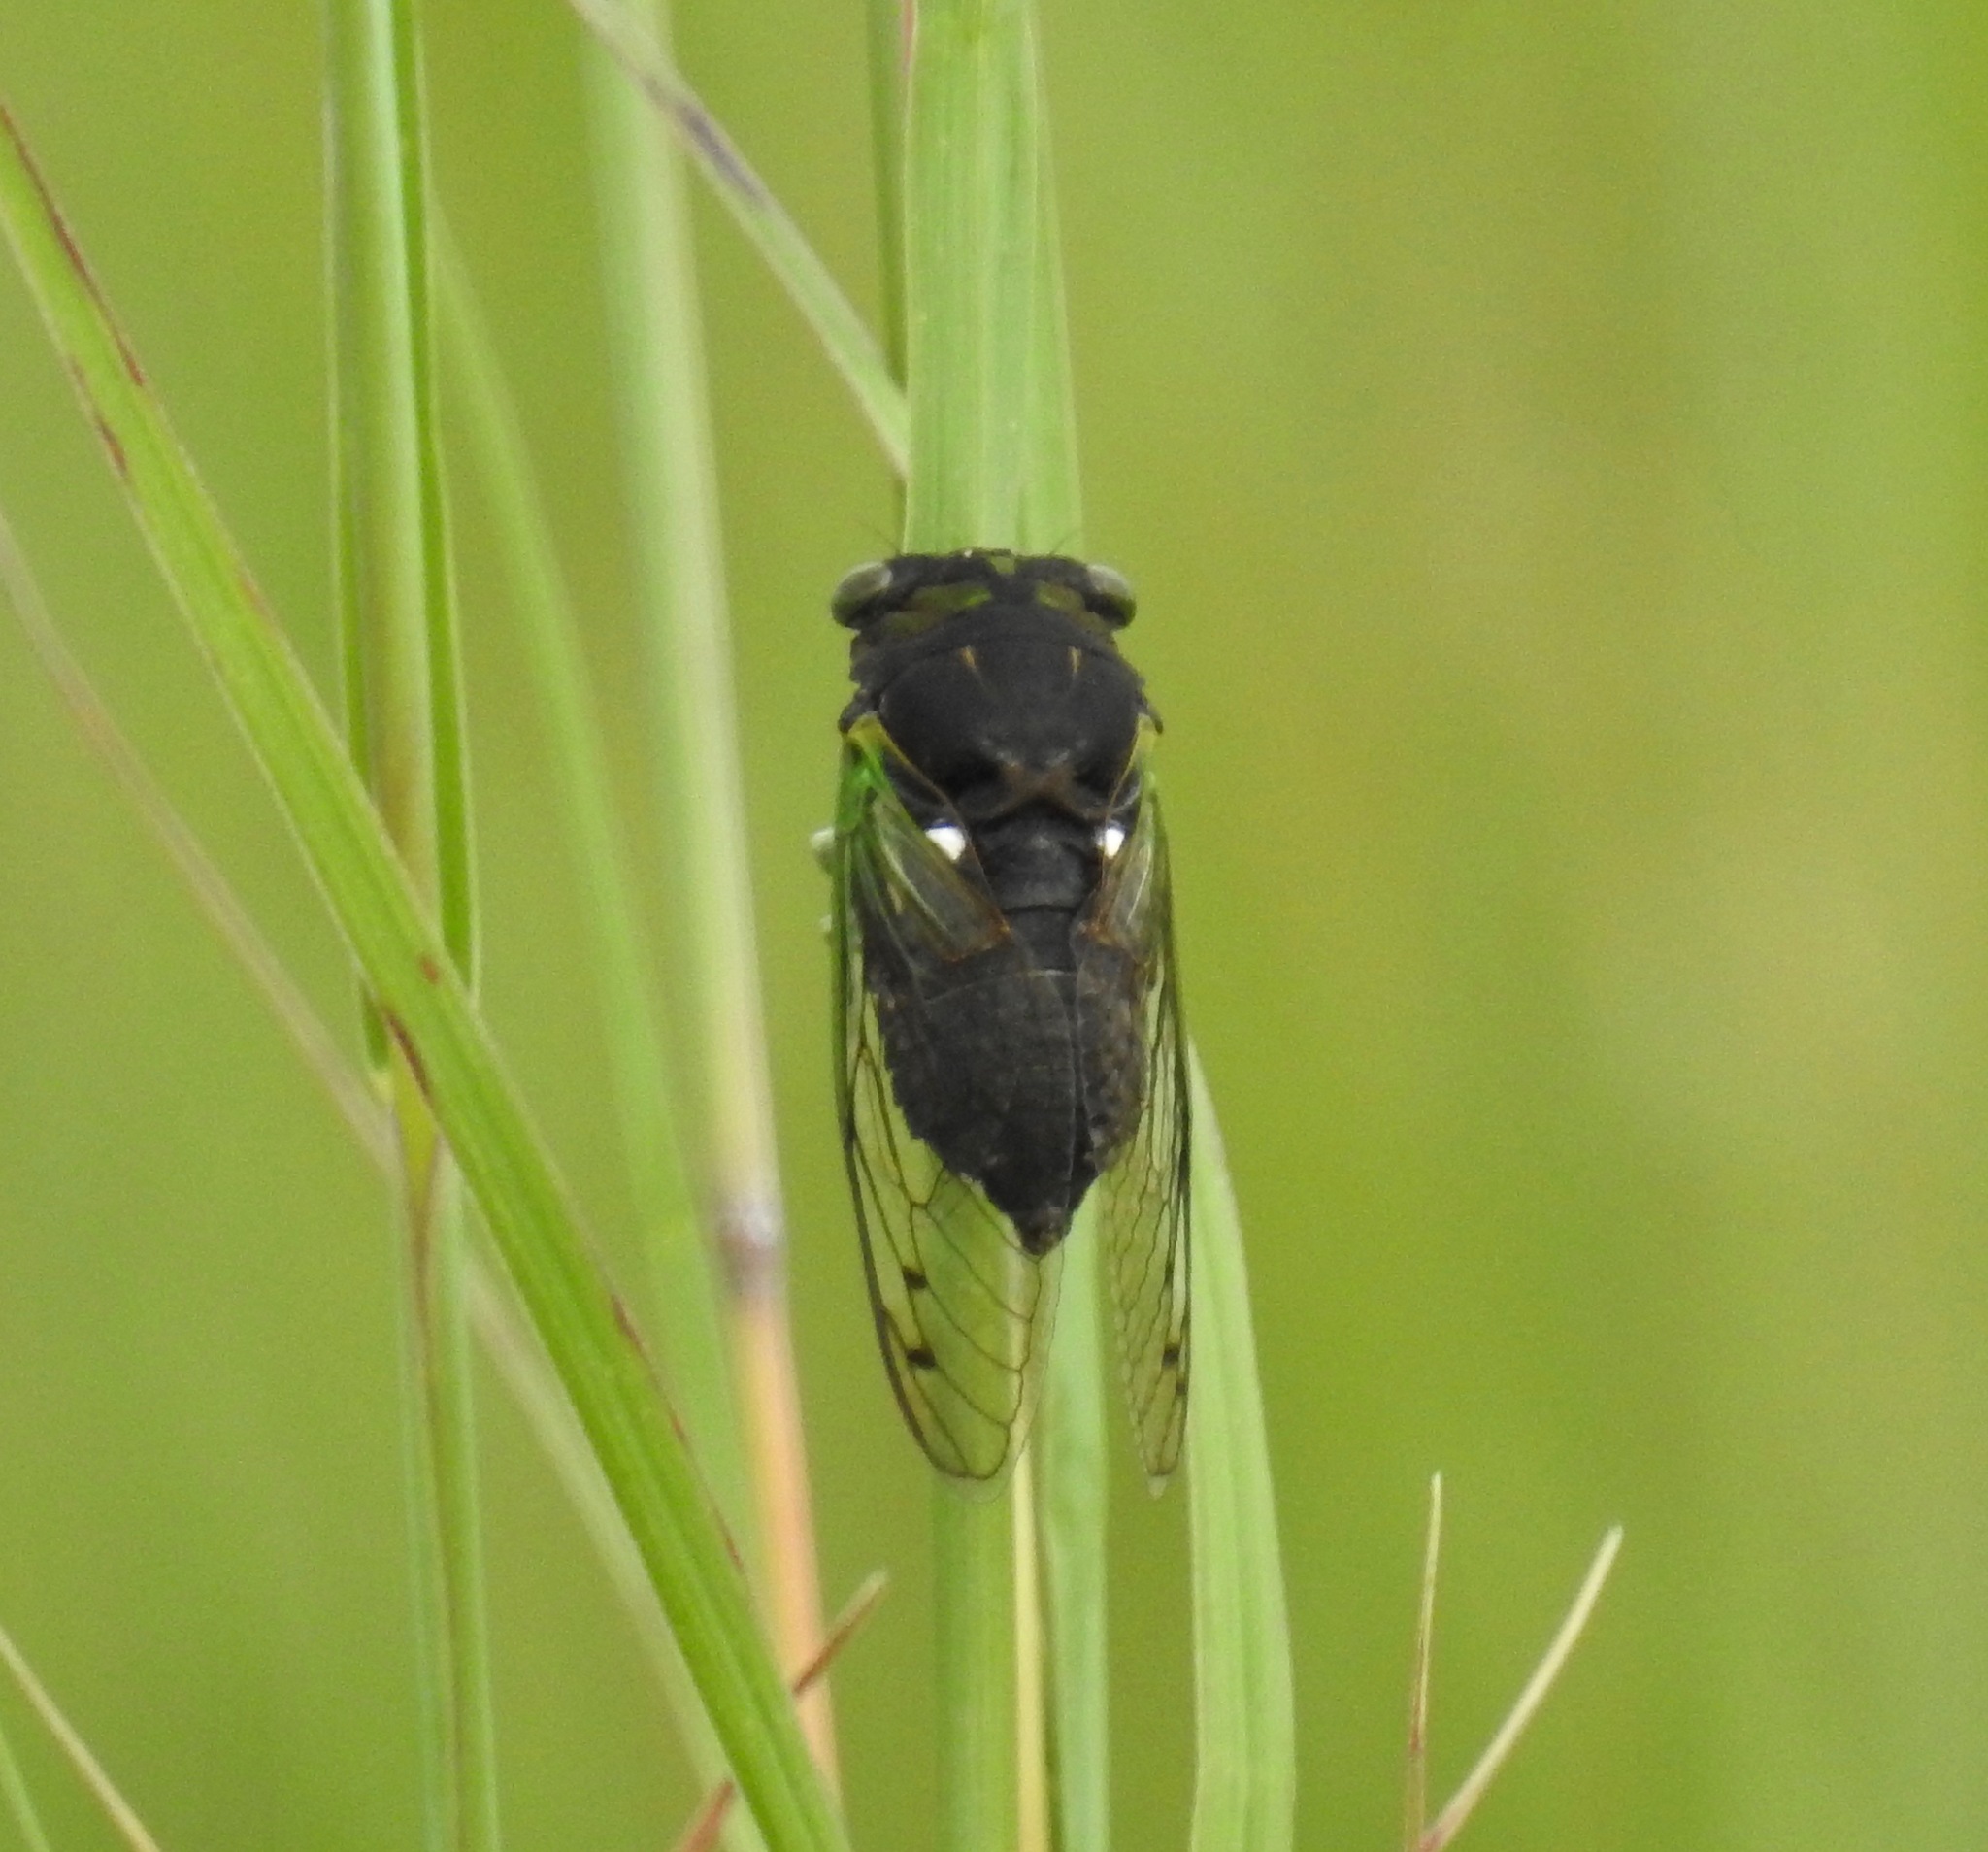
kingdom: Animalia
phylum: Arthropoda
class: Insecta
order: Hemiptera
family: Cicadidae
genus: Neotibicen
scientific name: Neotibicen tibicen
